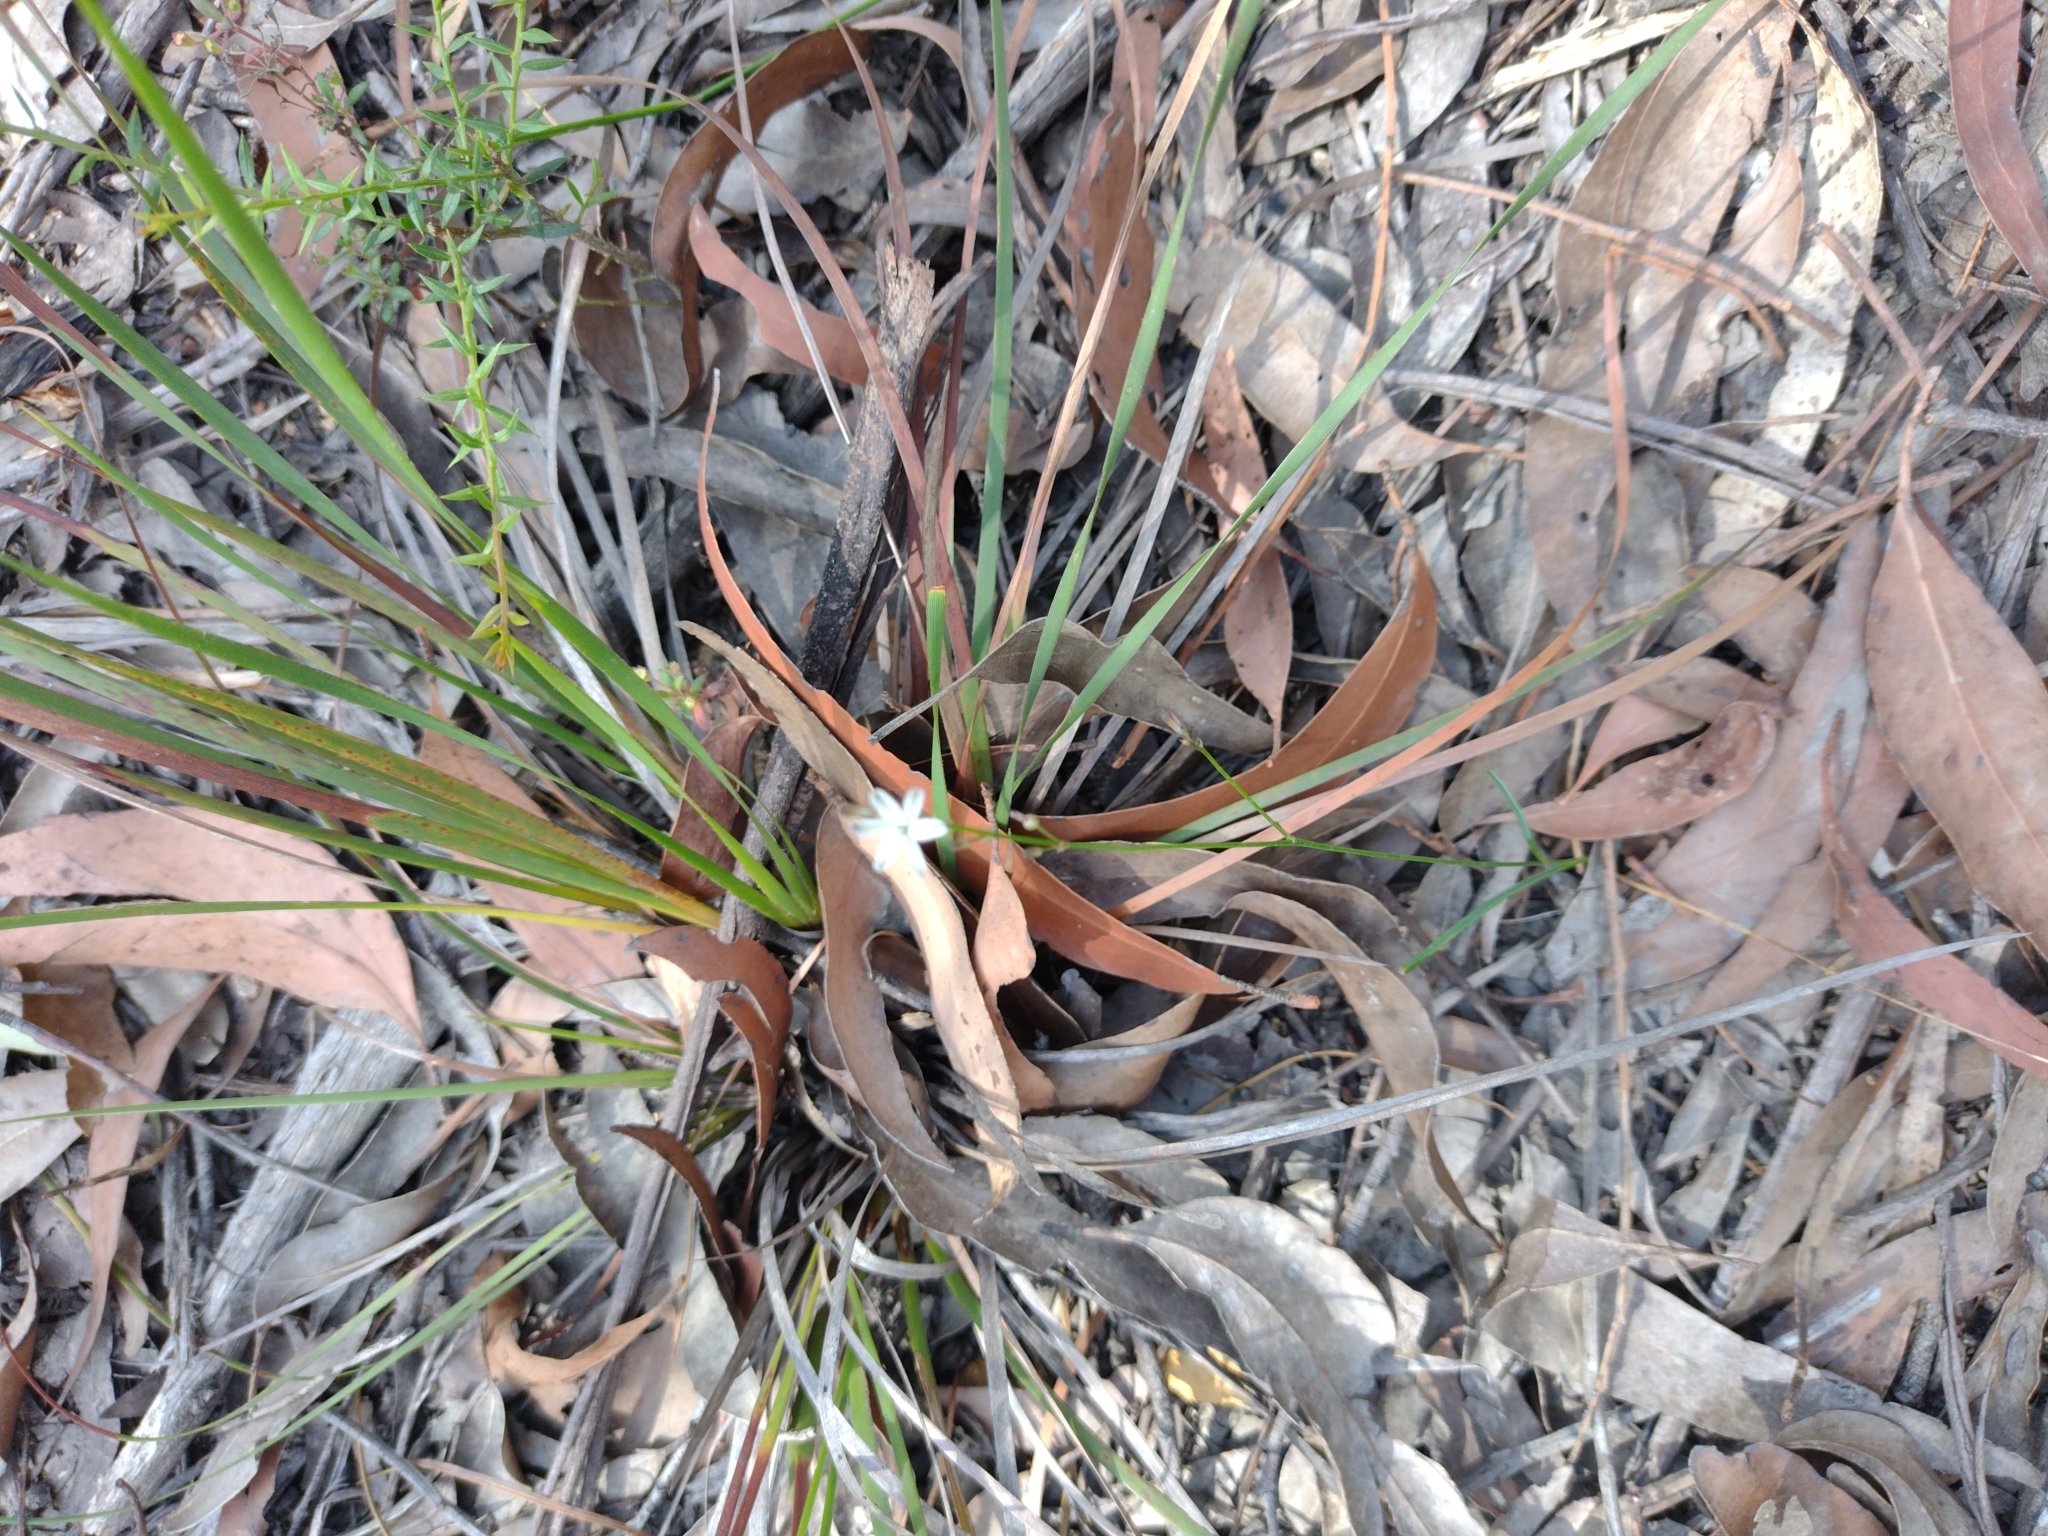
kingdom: Plantae
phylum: Tracheophyta
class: Liliopsida
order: Asparagales
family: Asphodelaceae
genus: Caesia
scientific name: Caesia parviflora
